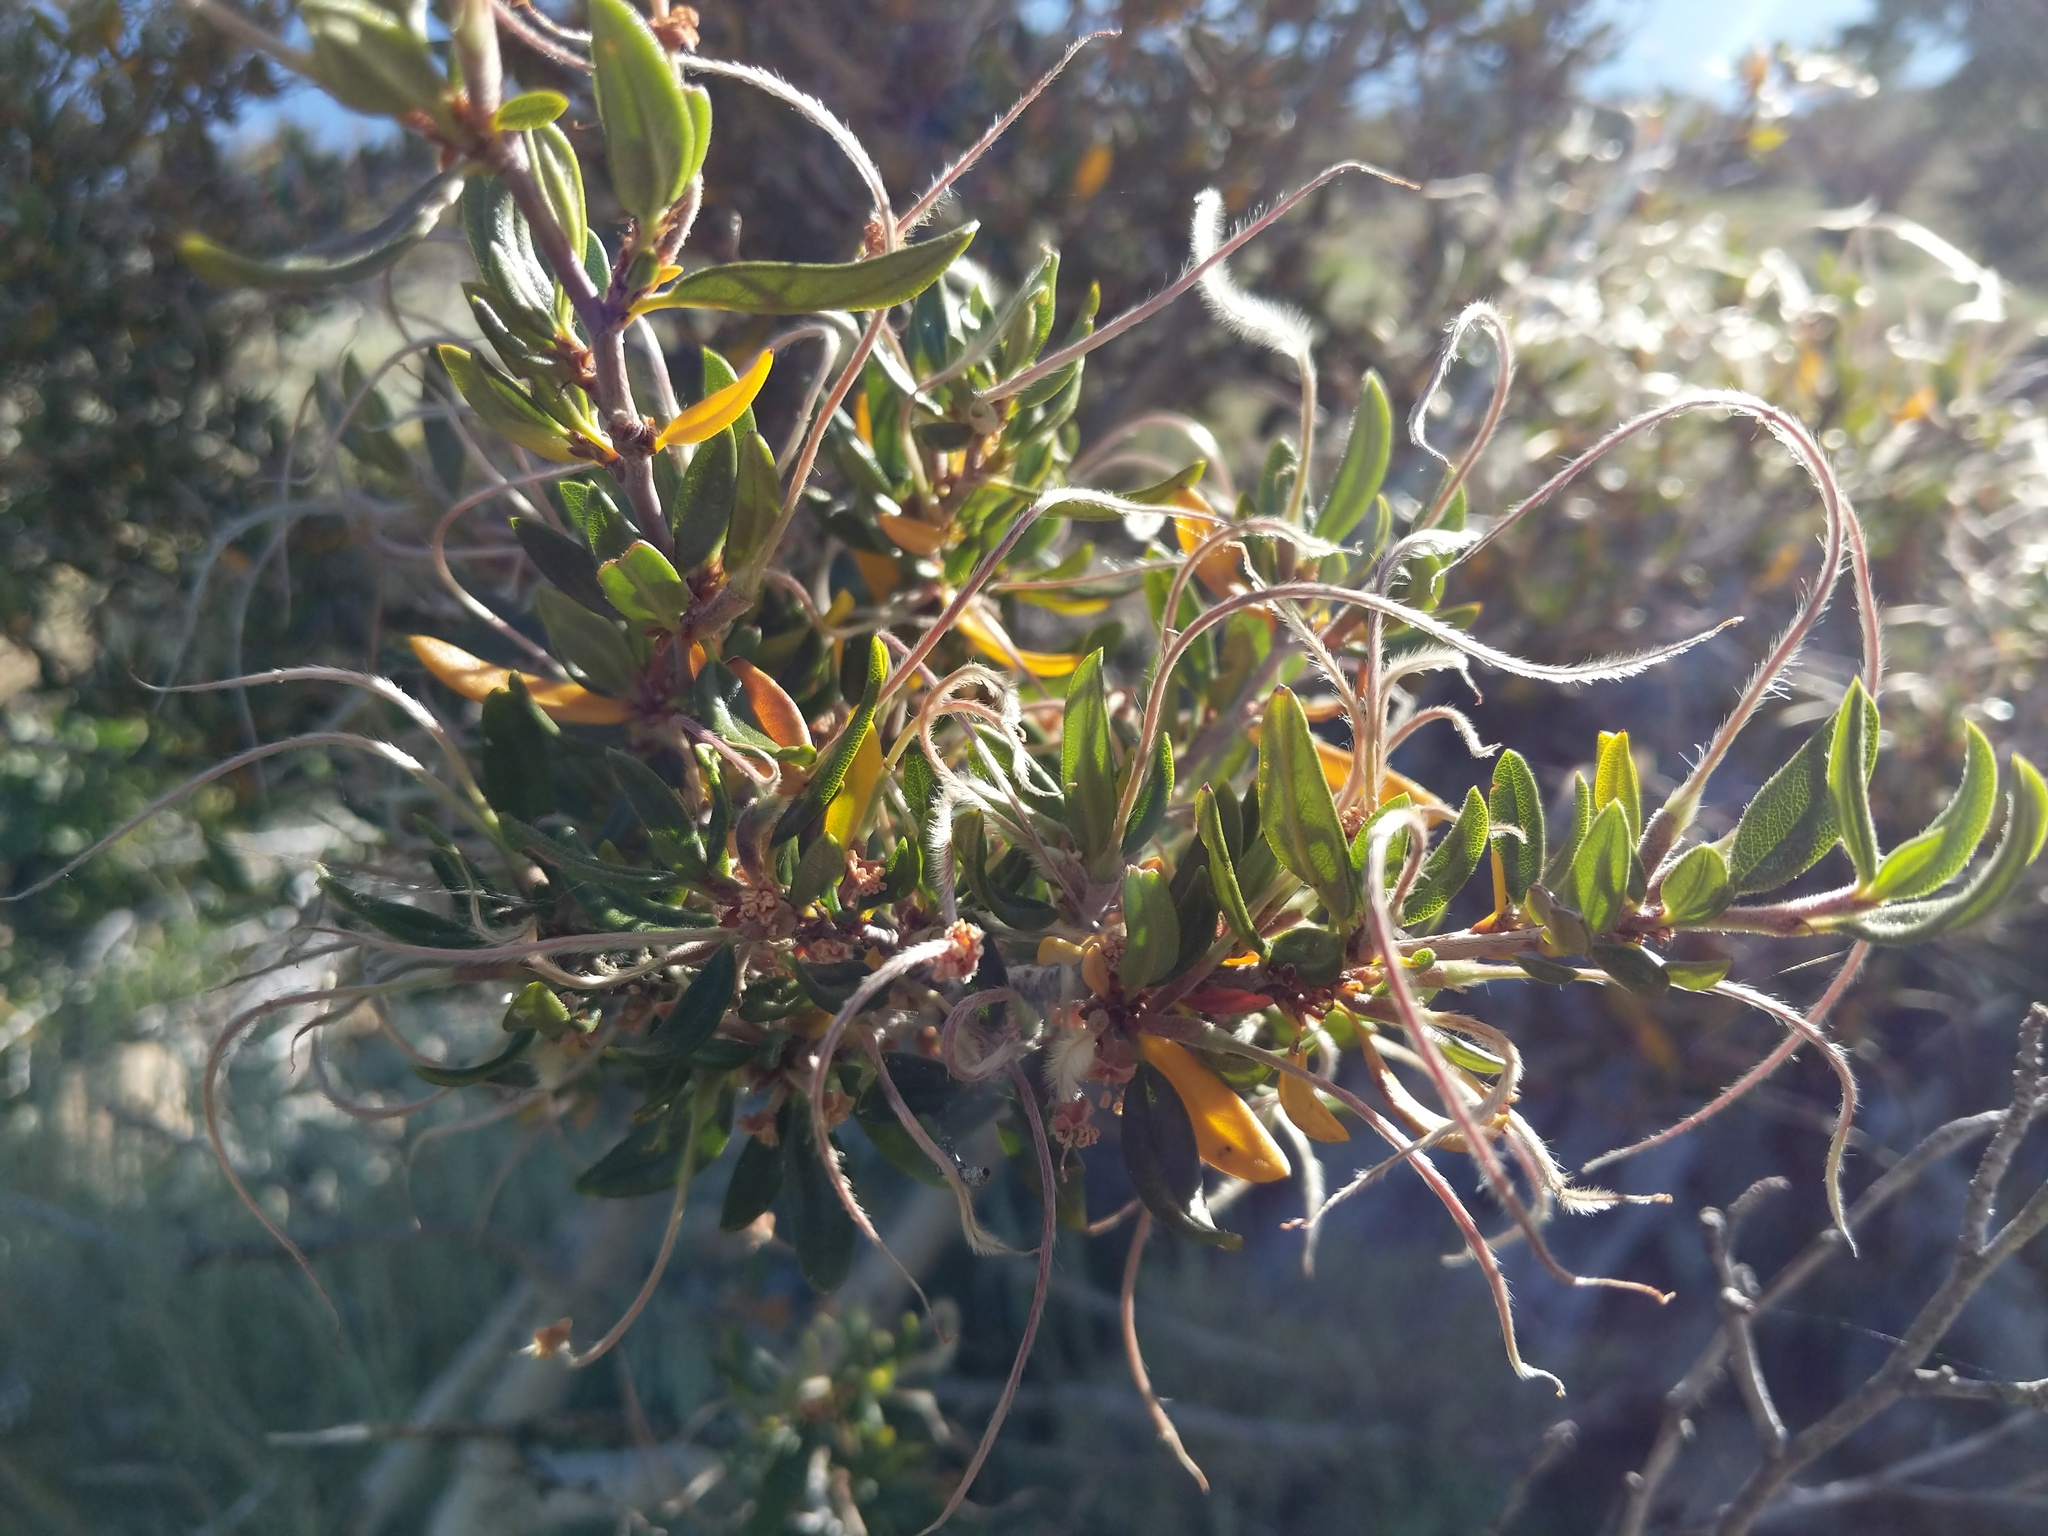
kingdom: Plantae
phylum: Tracheophyta
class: Magnoliopsida
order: Rosales
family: Rosaceae
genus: Cercocarpus
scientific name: Cercocarpus ledifolius
